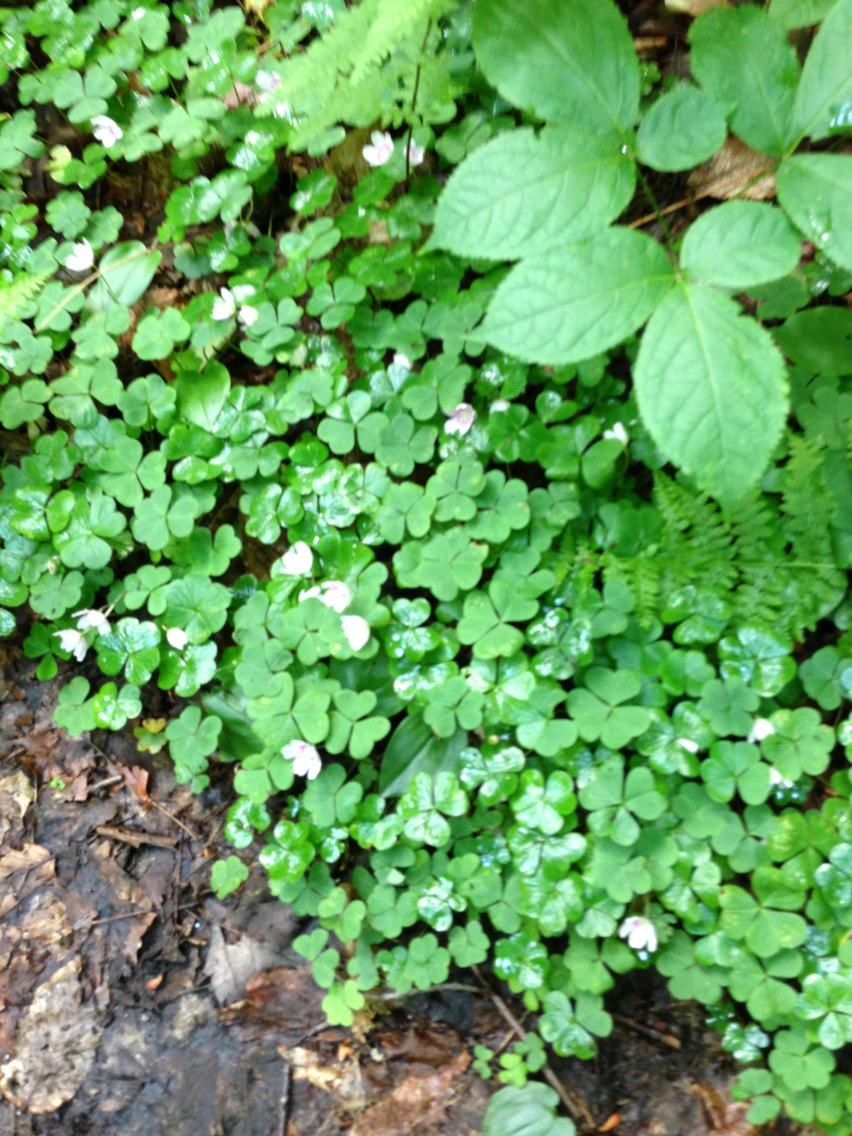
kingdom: Plantae
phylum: Tracheophyta
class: Magnoliopsida
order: Oxalidales
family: Oxalidaceae
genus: Oxalis
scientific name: Oxalis montana
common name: American wood-sorrel
